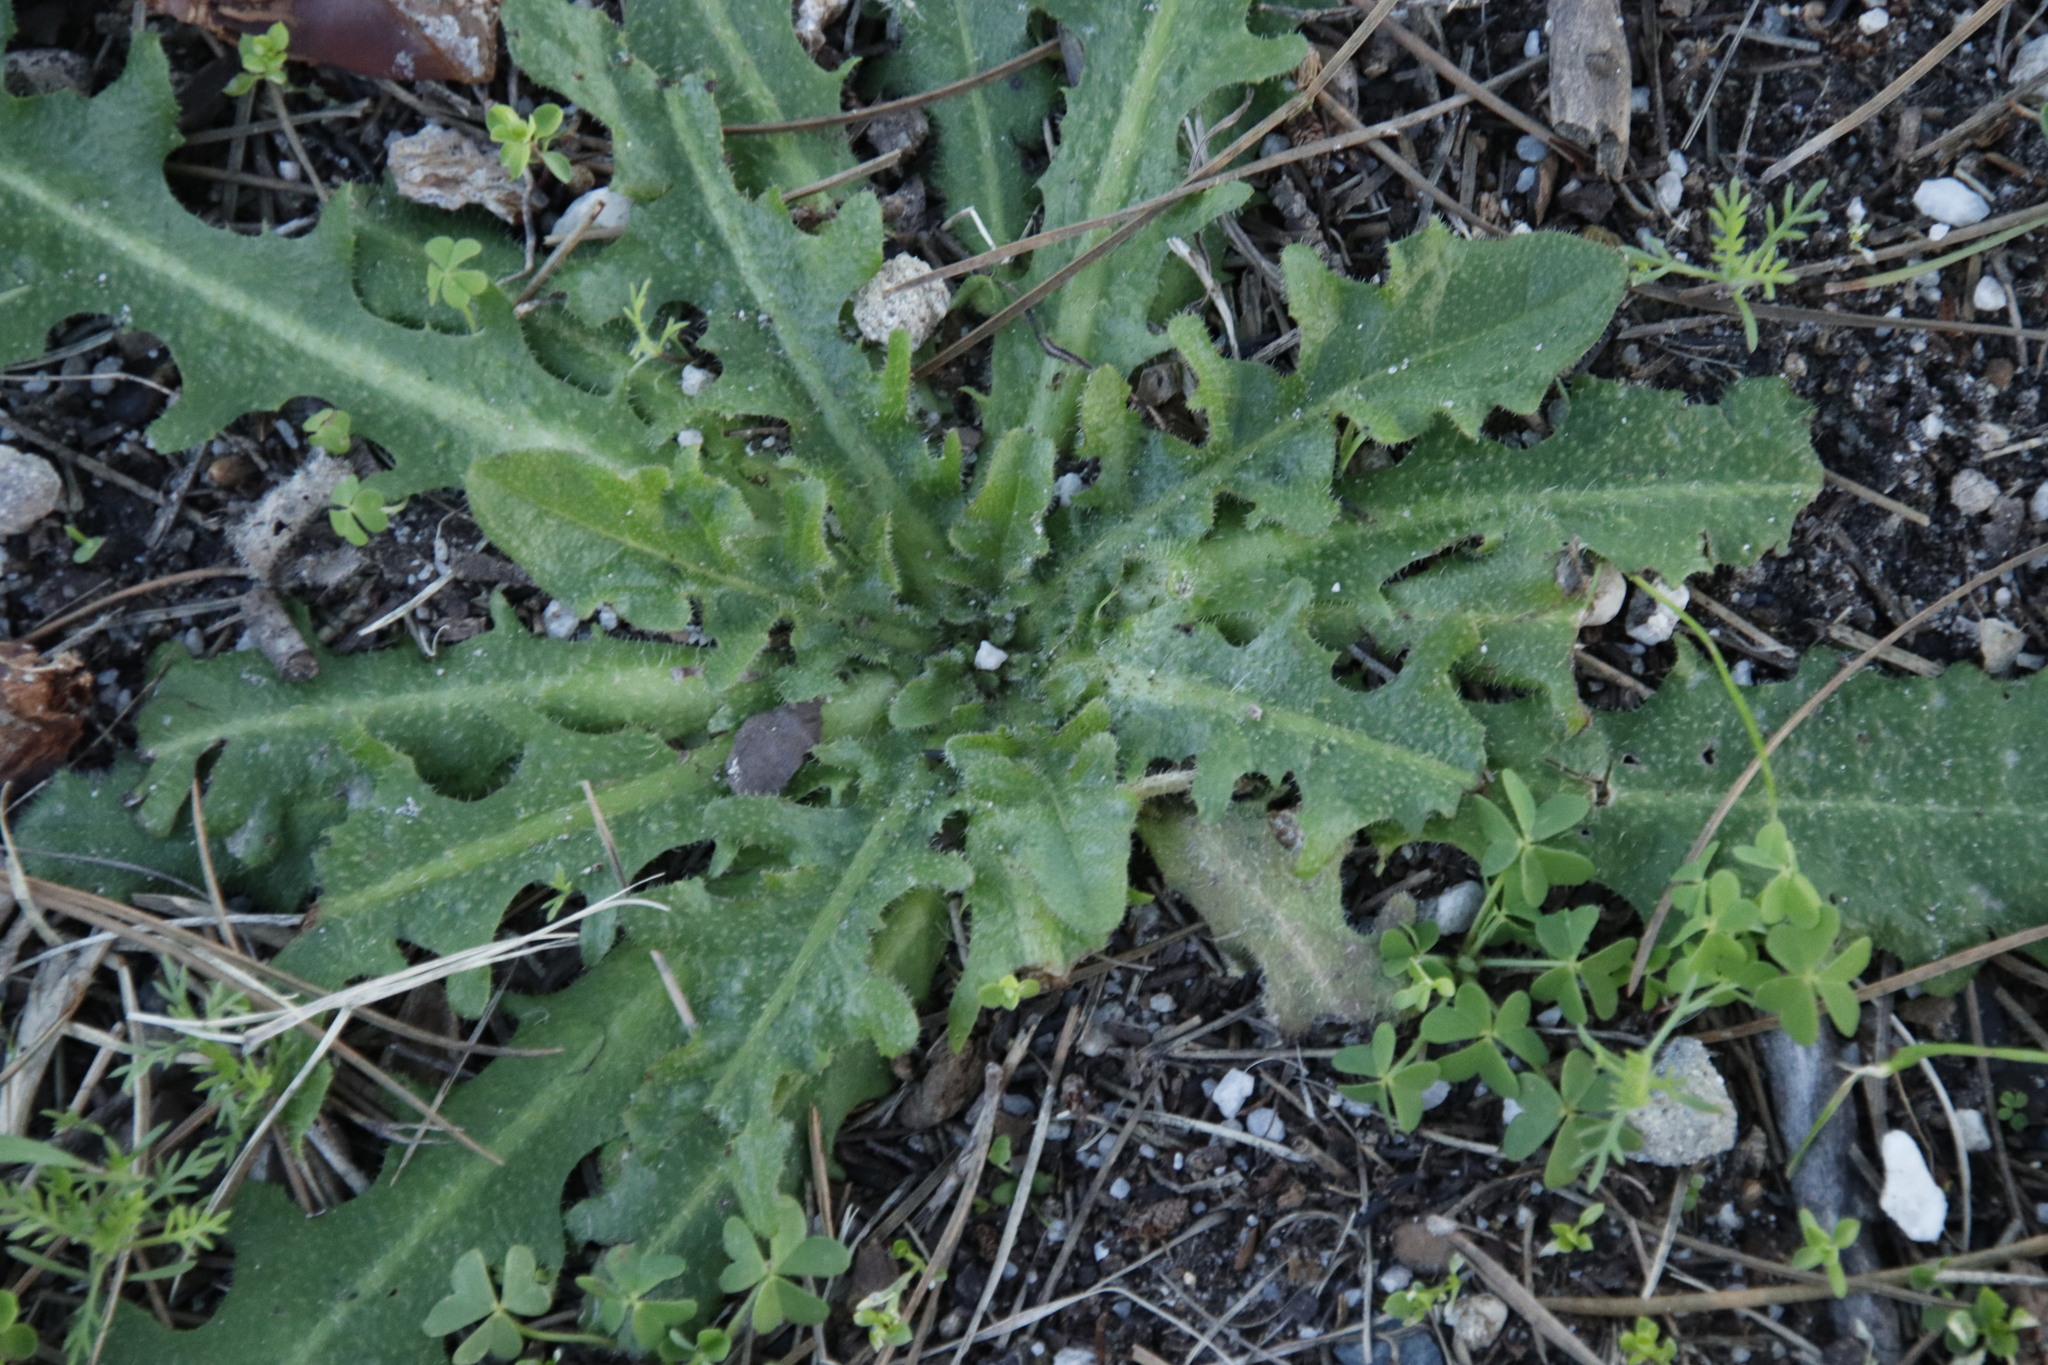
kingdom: Plantae
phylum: Tracheophyta
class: Magnoliopsida
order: Asterales
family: Asteraceae
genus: Hypochaeris
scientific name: Hypochaeris radicata
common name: Flatweed
